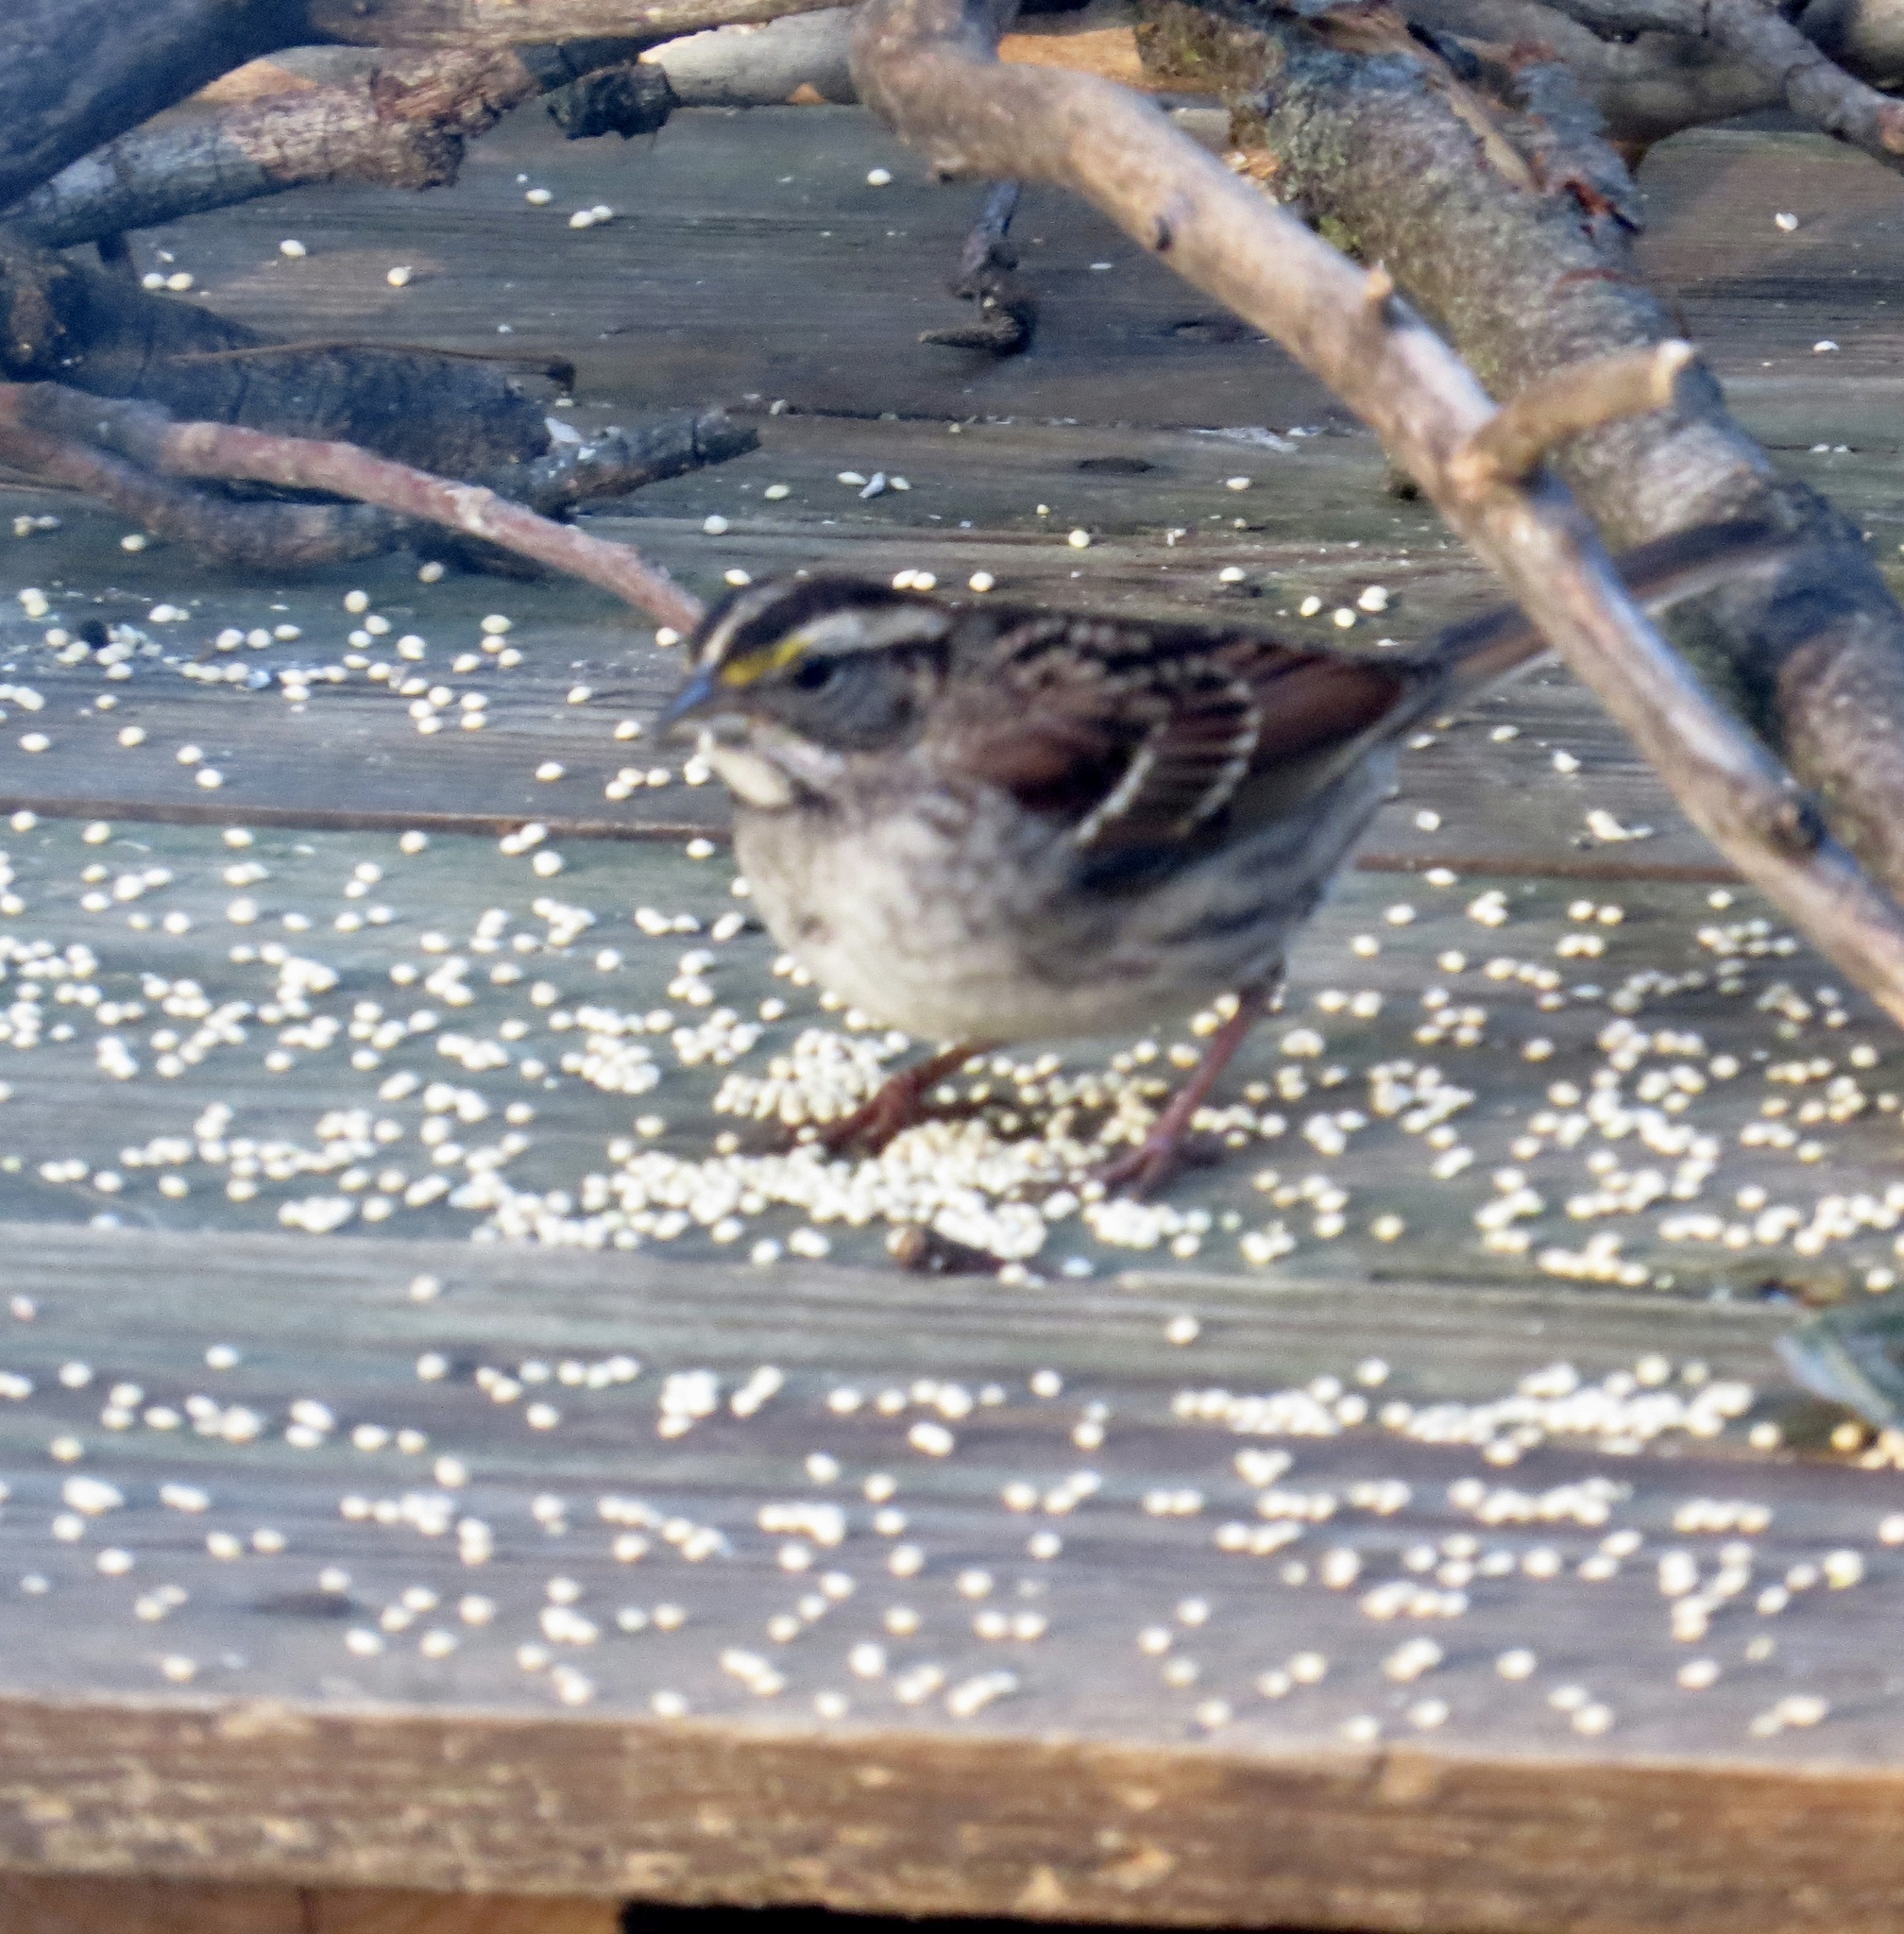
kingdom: Animalia
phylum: Chordata
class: Aves
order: Passeriformes
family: Passerellidae
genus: Zonotrichia
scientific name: Zonotrichia albicollis
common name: White-throated sparrow
